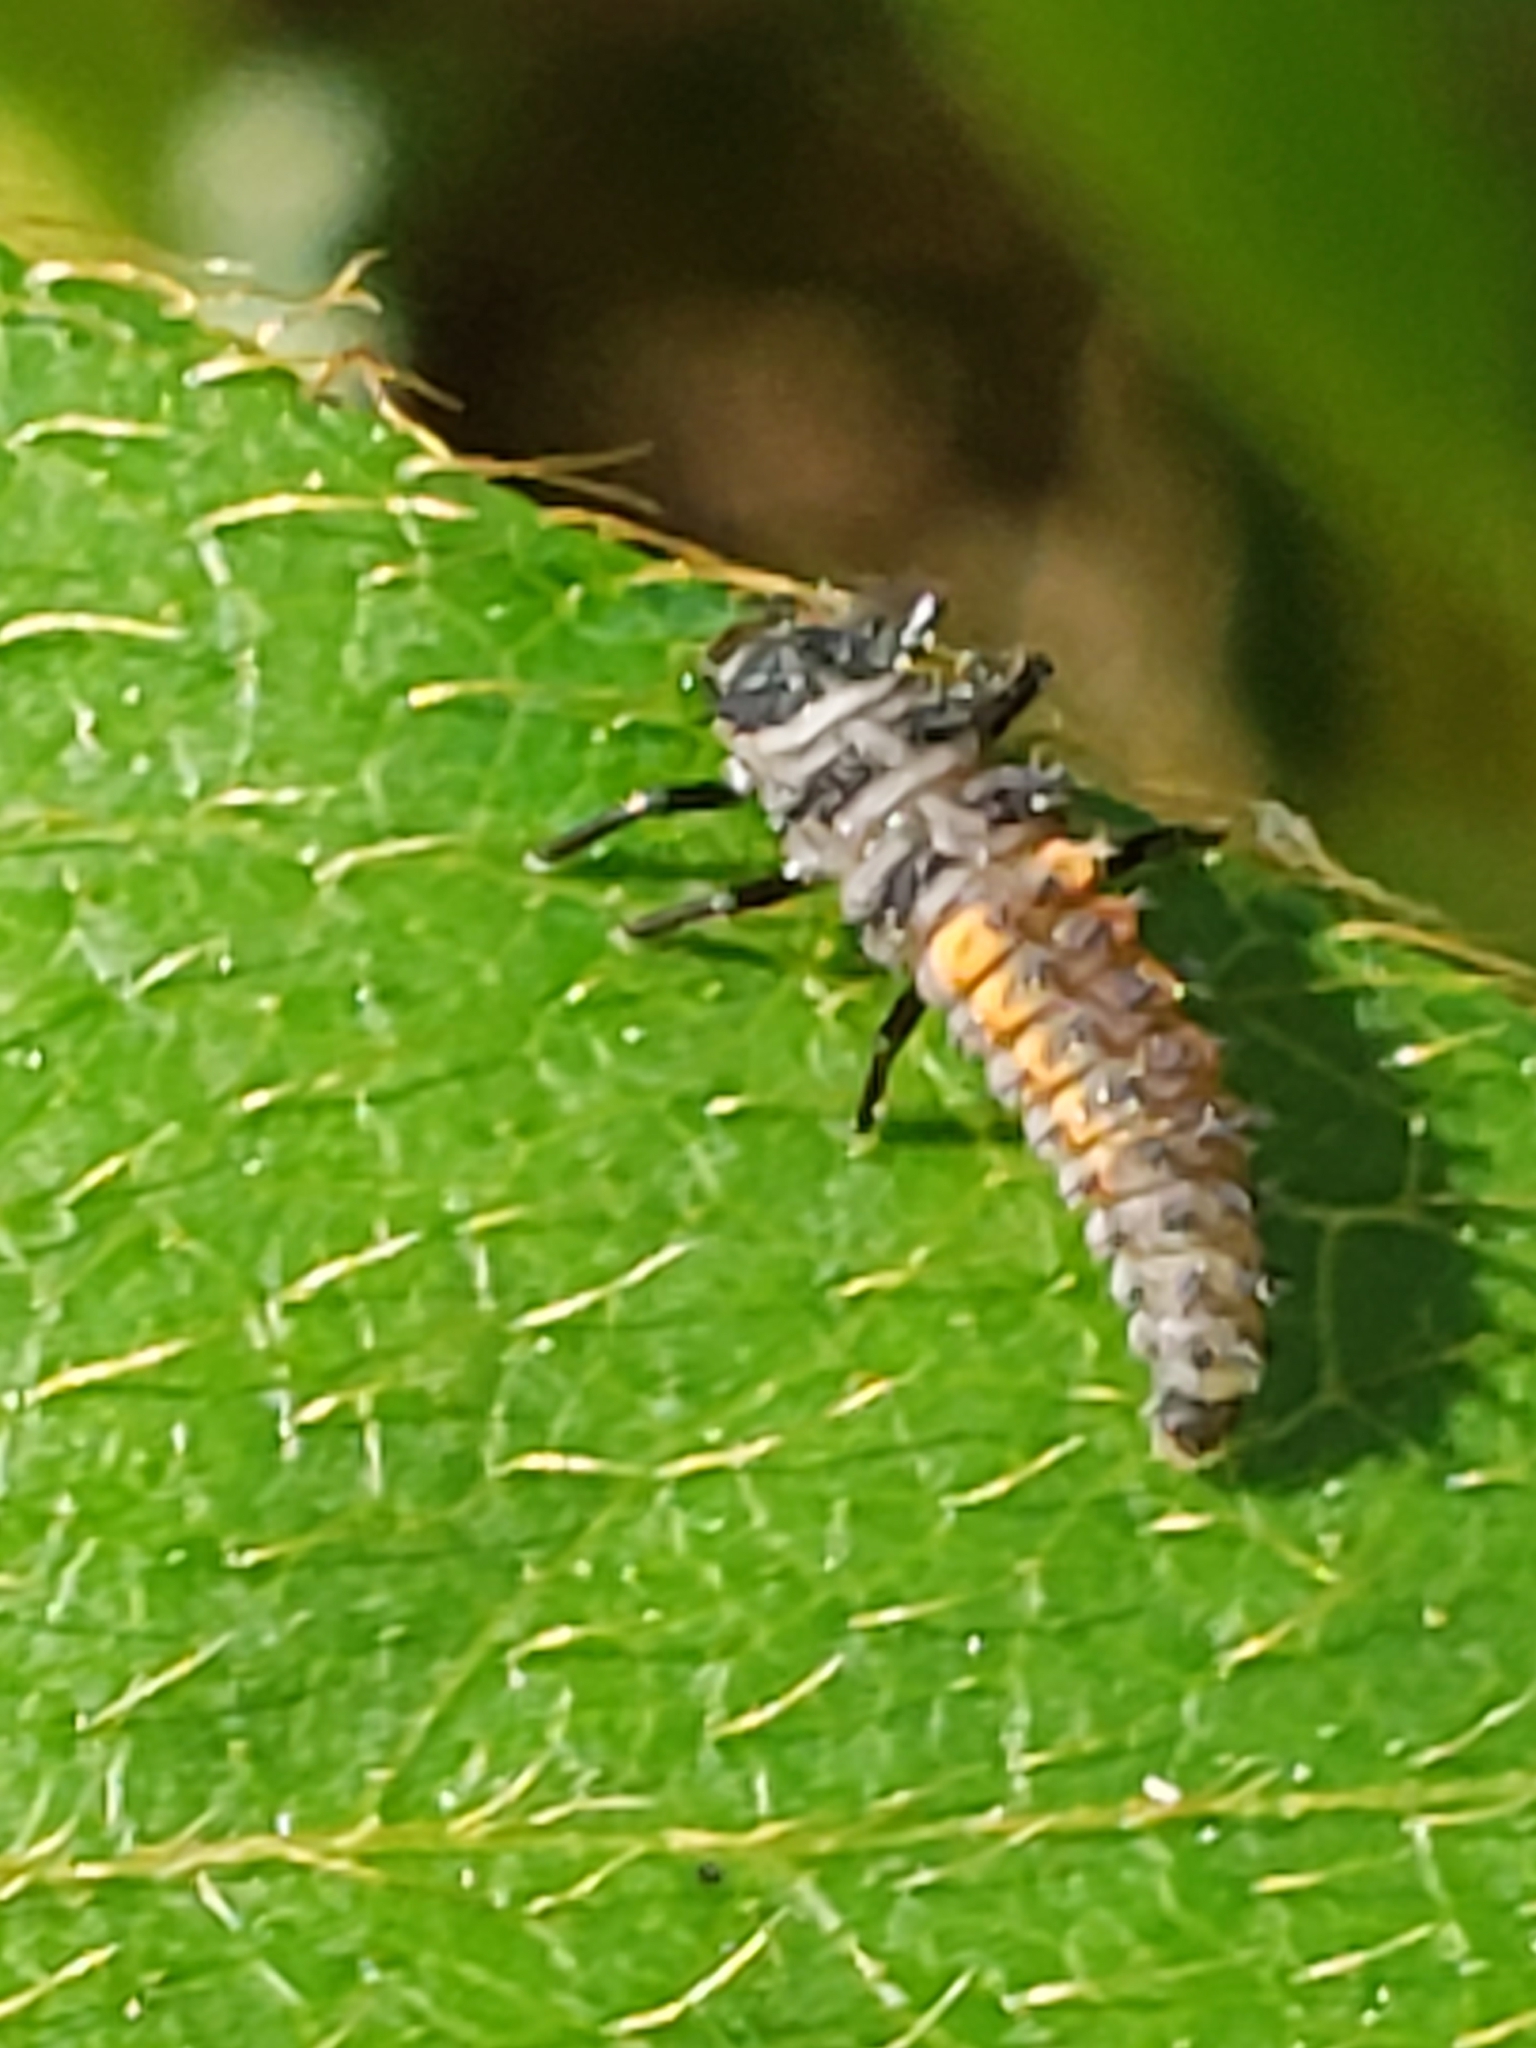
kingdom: Animalia
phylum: Arthropoda
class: Insecta
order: Coleoptera
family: Coccinellidae
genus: Harmonia
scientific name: Harmonia axyridis
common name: Harlequin ladybird
